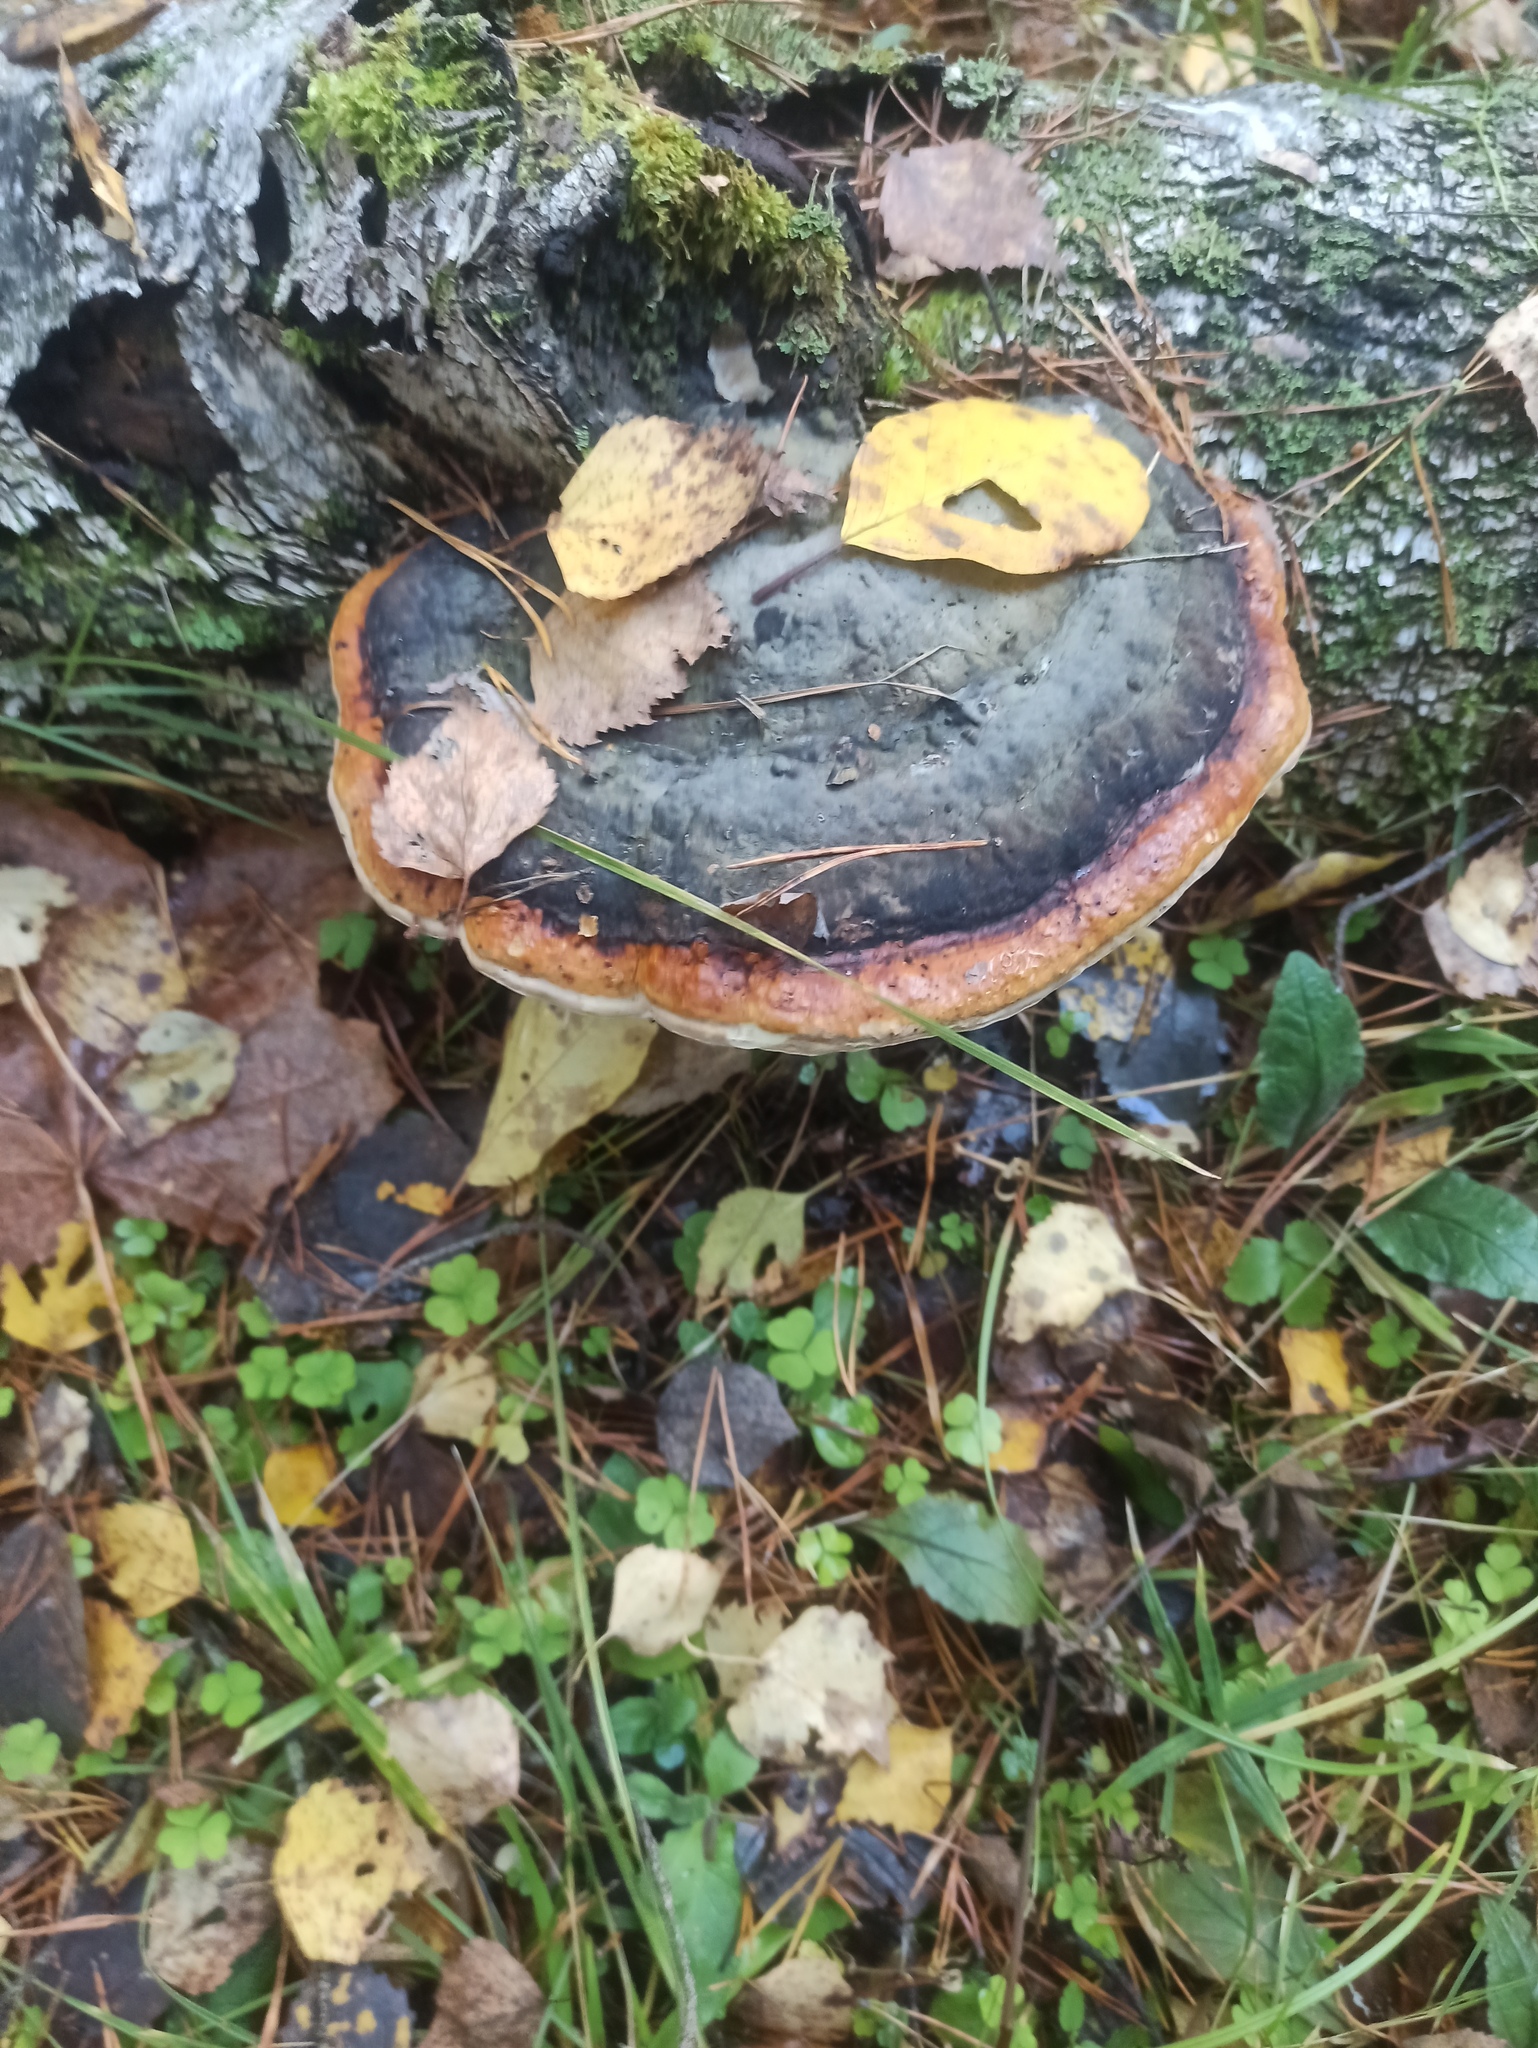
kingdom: Fungi
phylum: Basidiomycota
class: Agaricomycetes
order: Polyporales
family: Fomitopsidaceae
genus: Fomitopsis
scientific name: Fomitopsis pinicola
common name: Red-belted bracket
